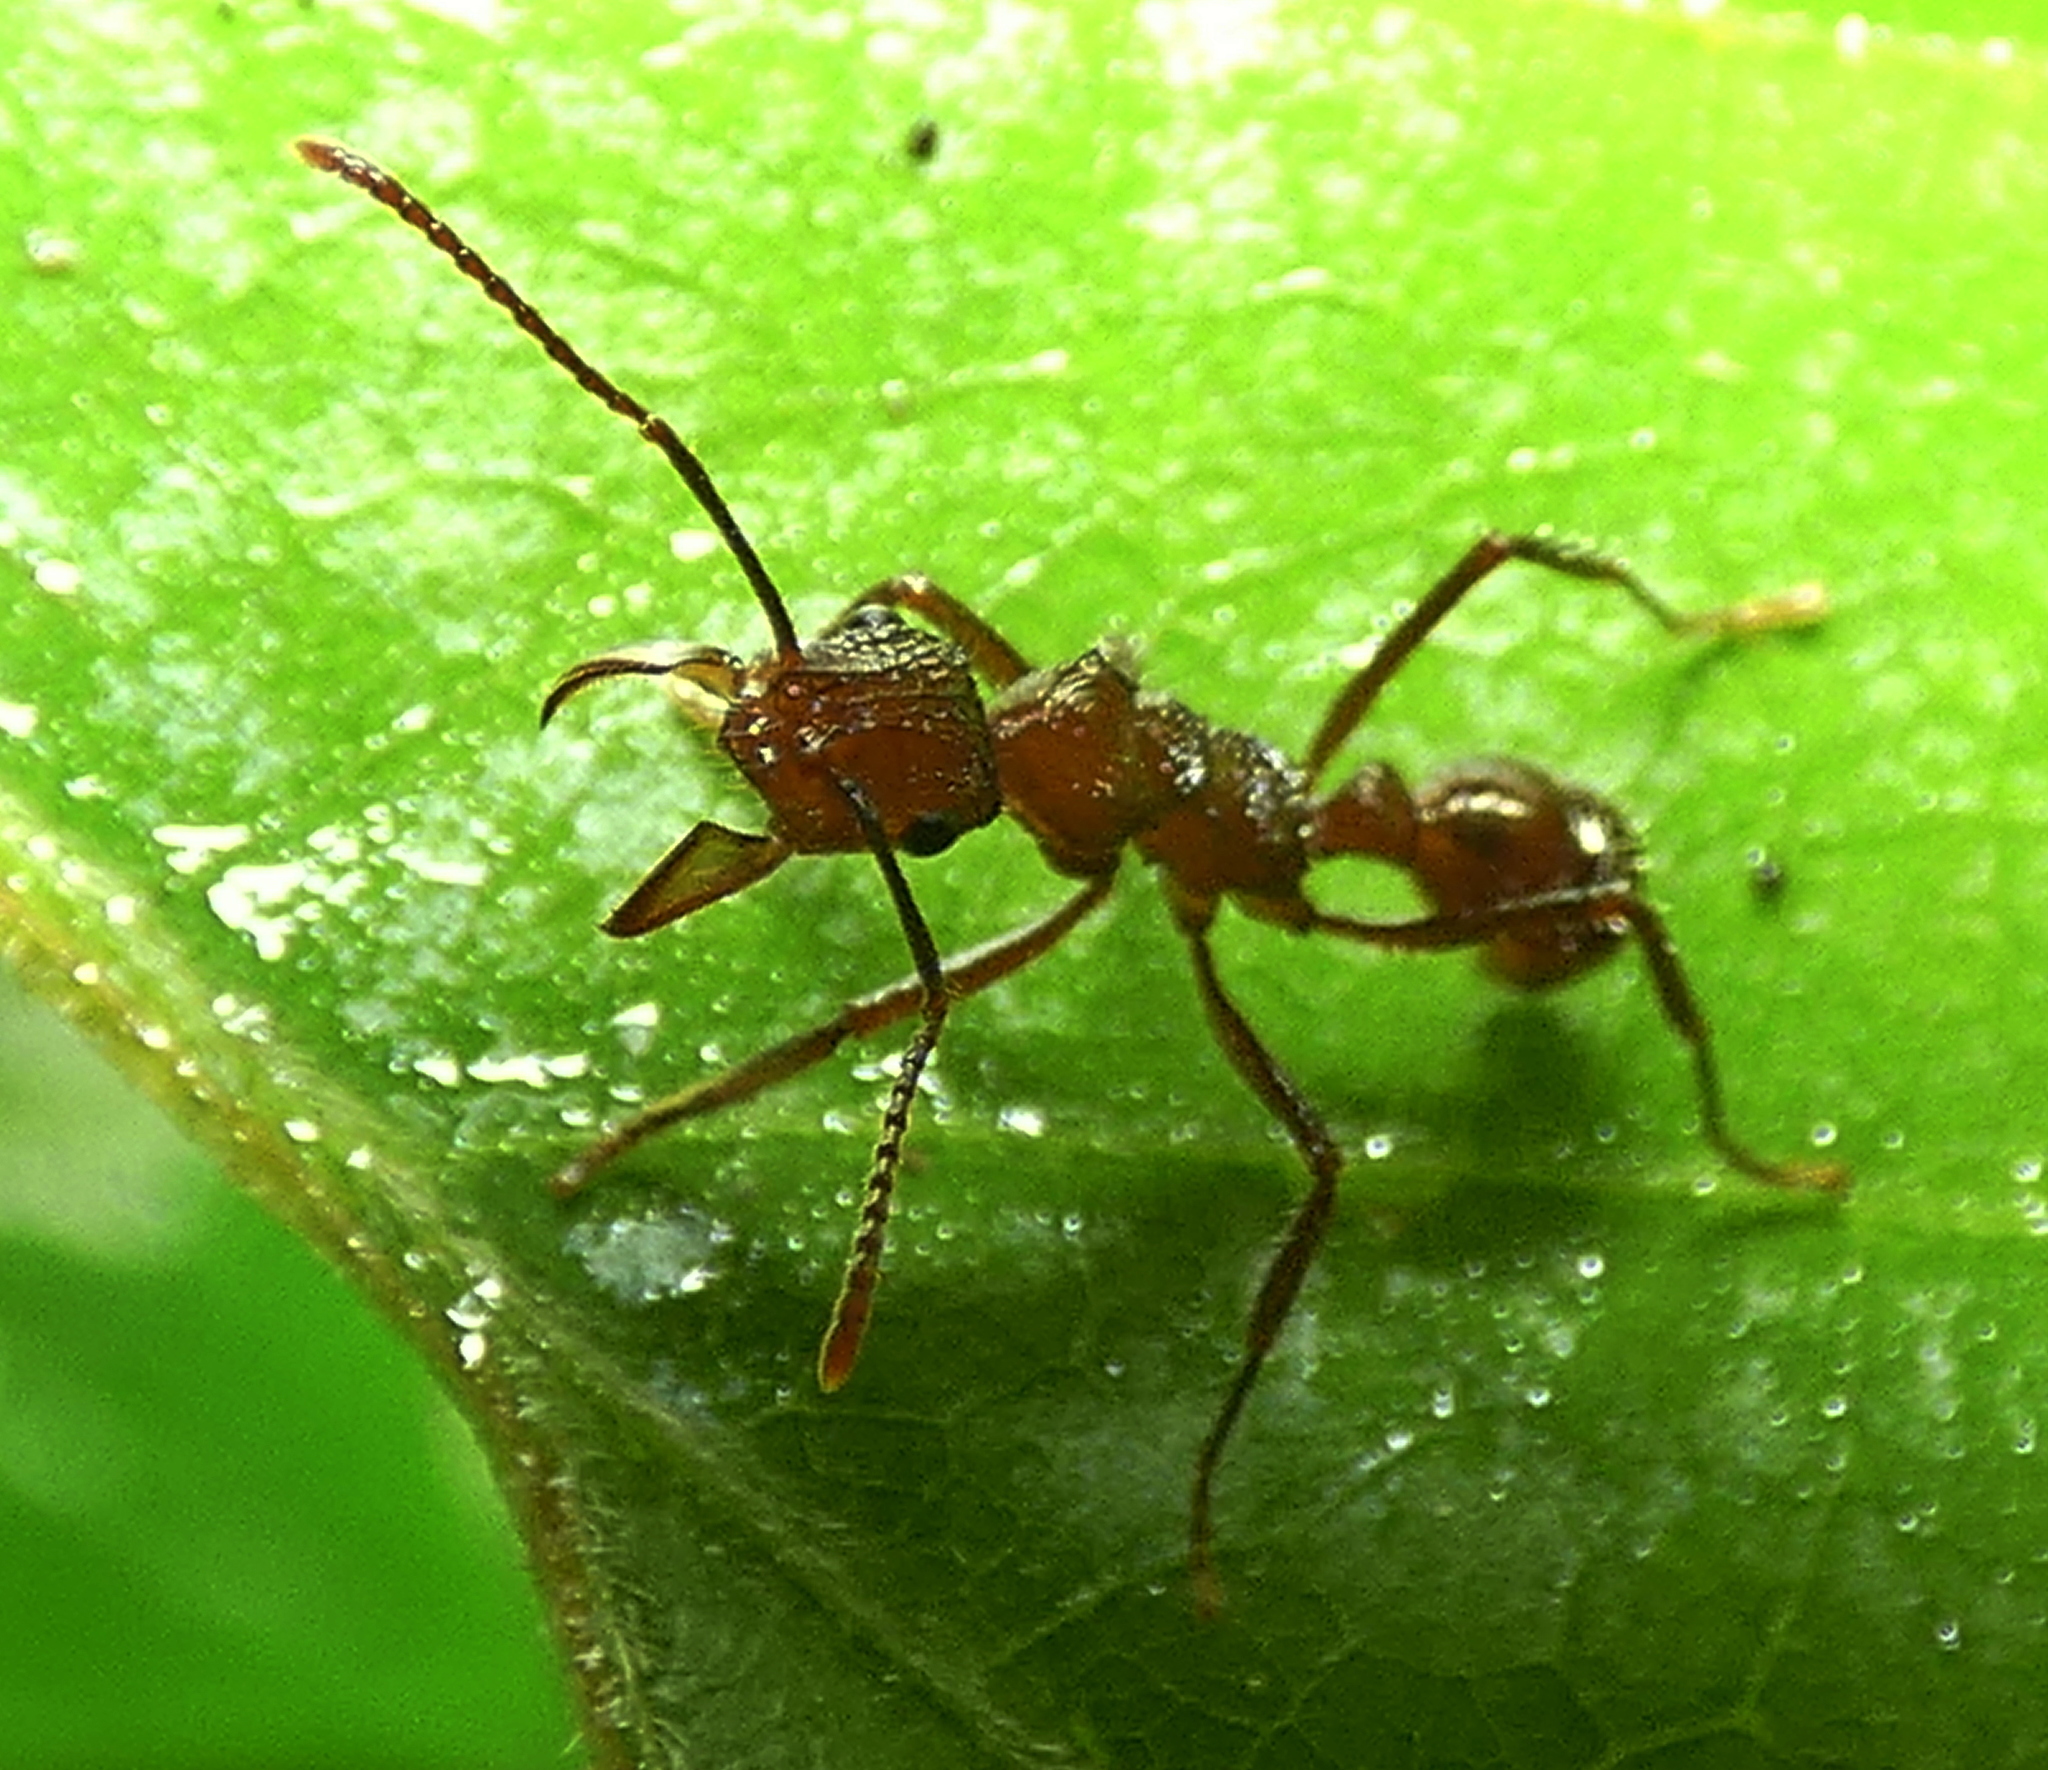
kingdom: Animalia
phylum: Arthropoda
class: Insecta
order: Hymenoptera
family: Formicidae
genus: Ectatomma
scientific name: Ectatomma tuberculatum
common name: Ant
